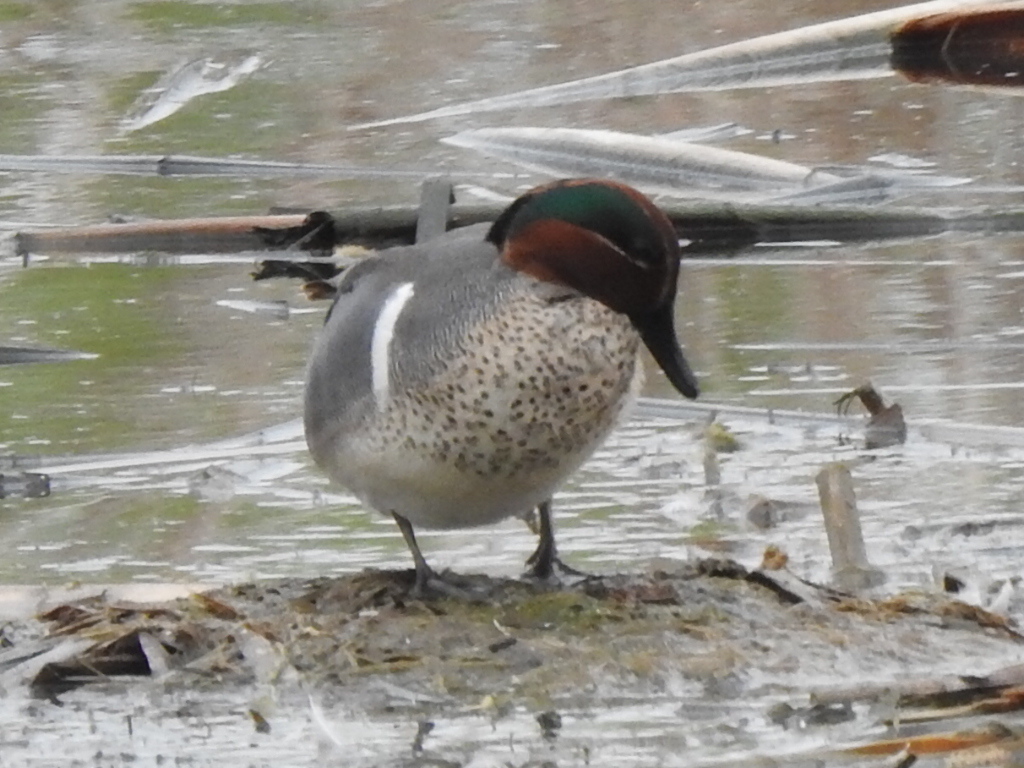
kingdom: Animalia
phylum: Chordata
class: Aves
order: Anseriformes
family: Anatidae
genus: Anas
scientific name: Anas crecca
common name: Eurasian teal
